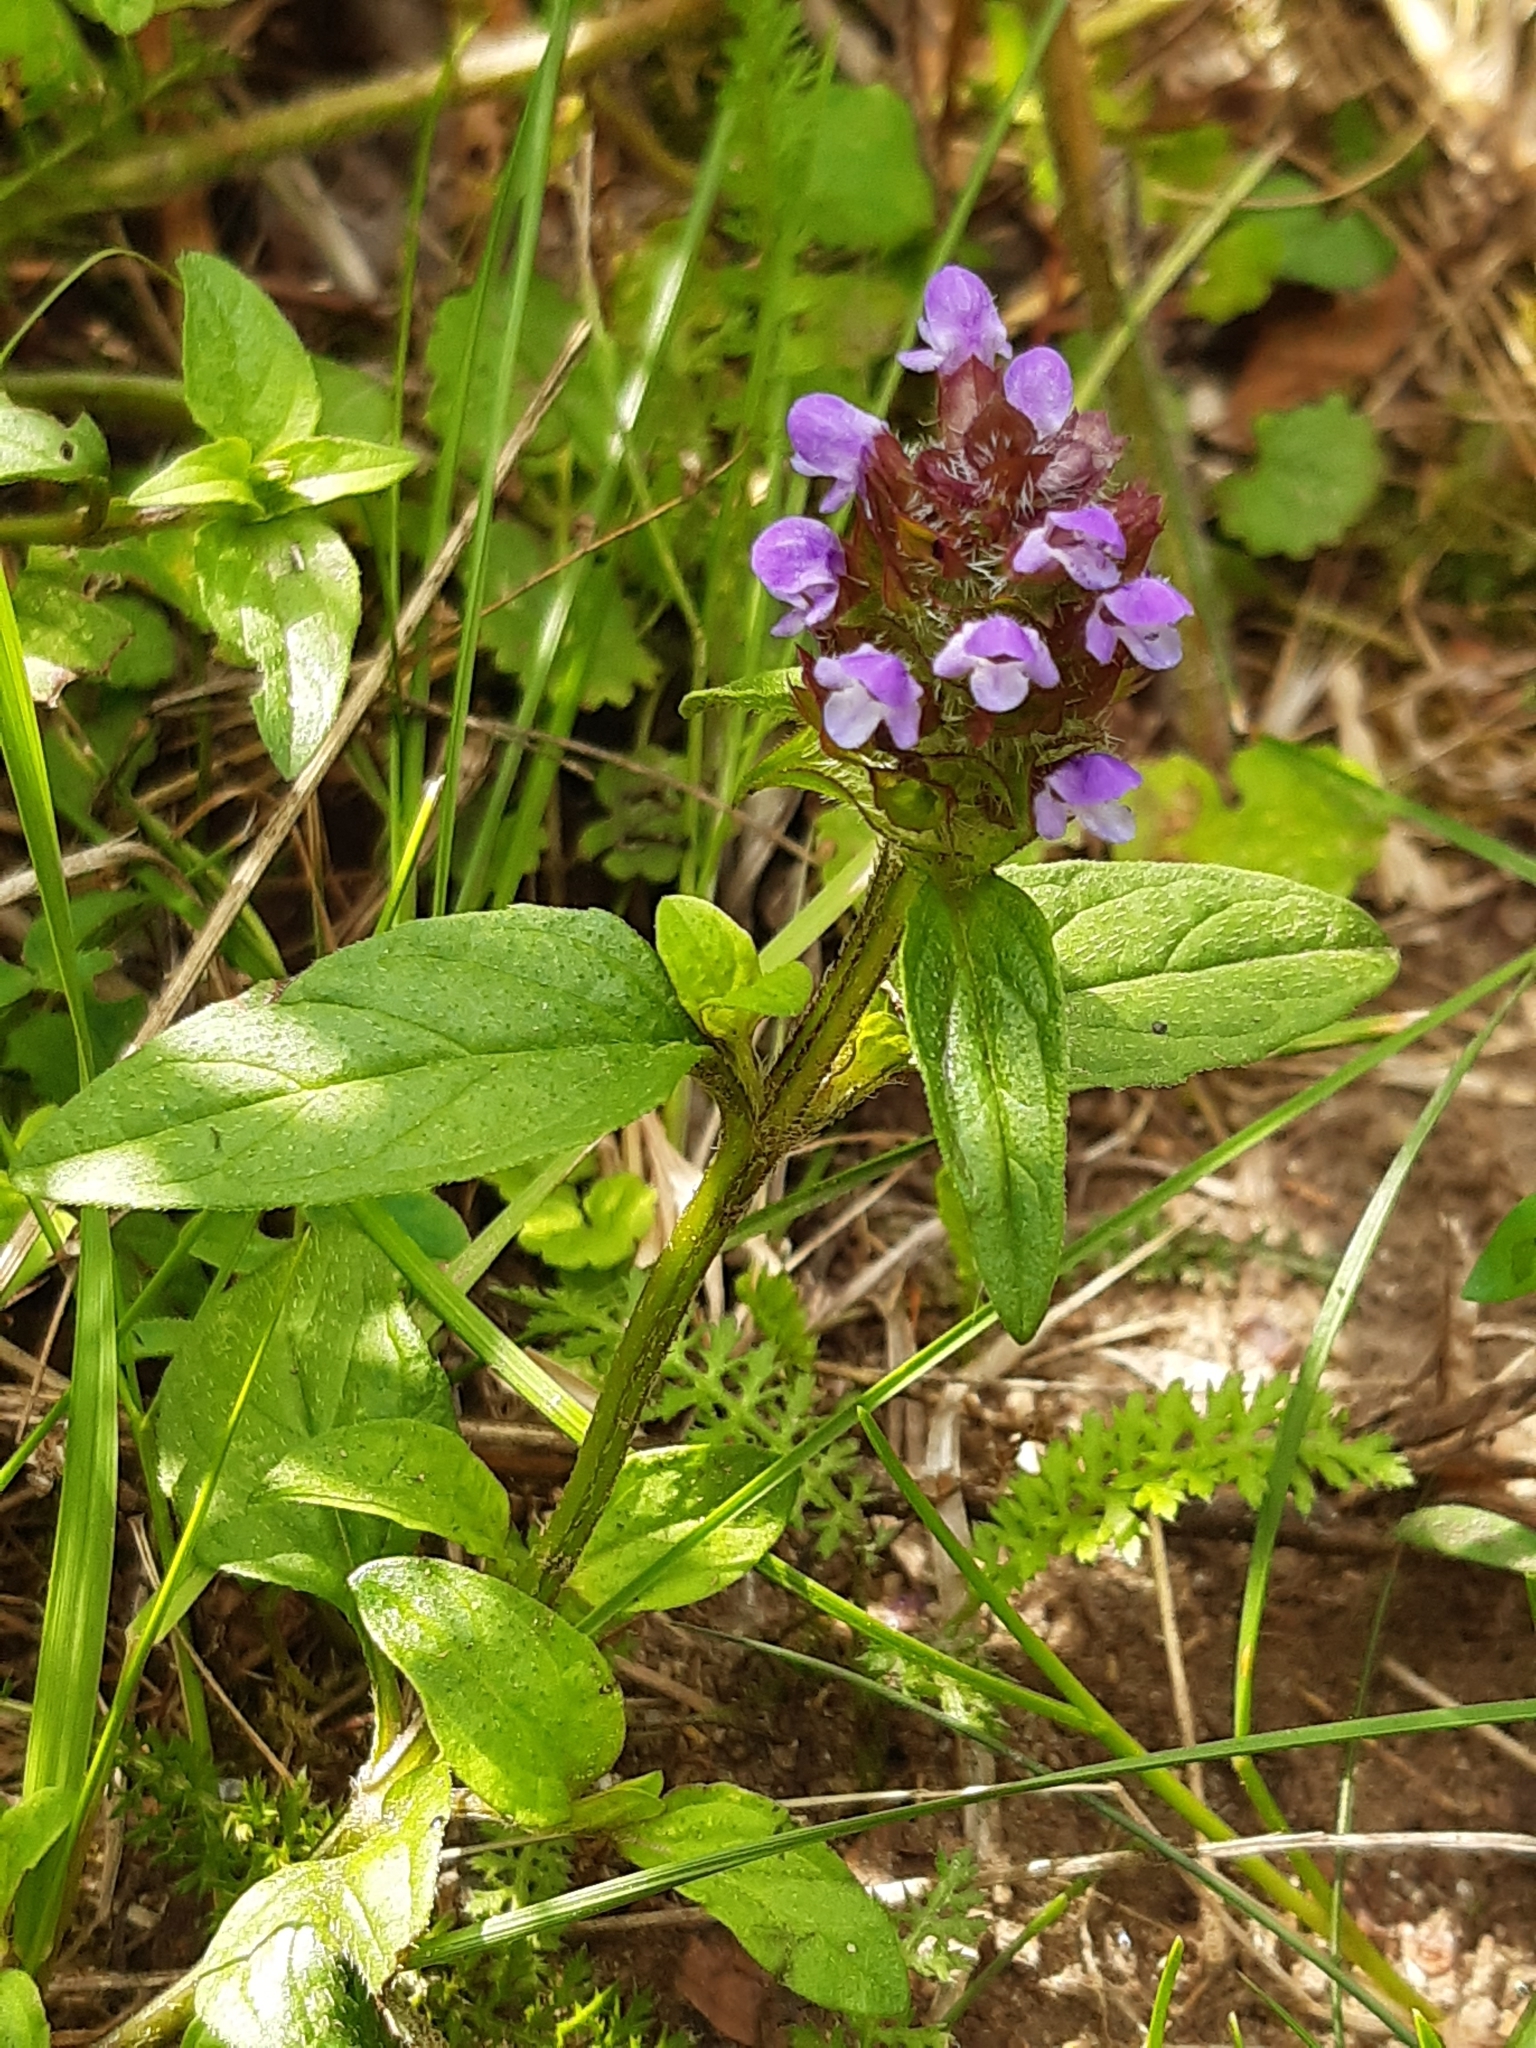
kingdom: Plantae
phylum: Tracheophyta
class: Magnoliopsida
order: Lamiales
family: Lamiaceae
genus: Prunella
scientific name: Prunella vulgaris
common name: Heal-all
